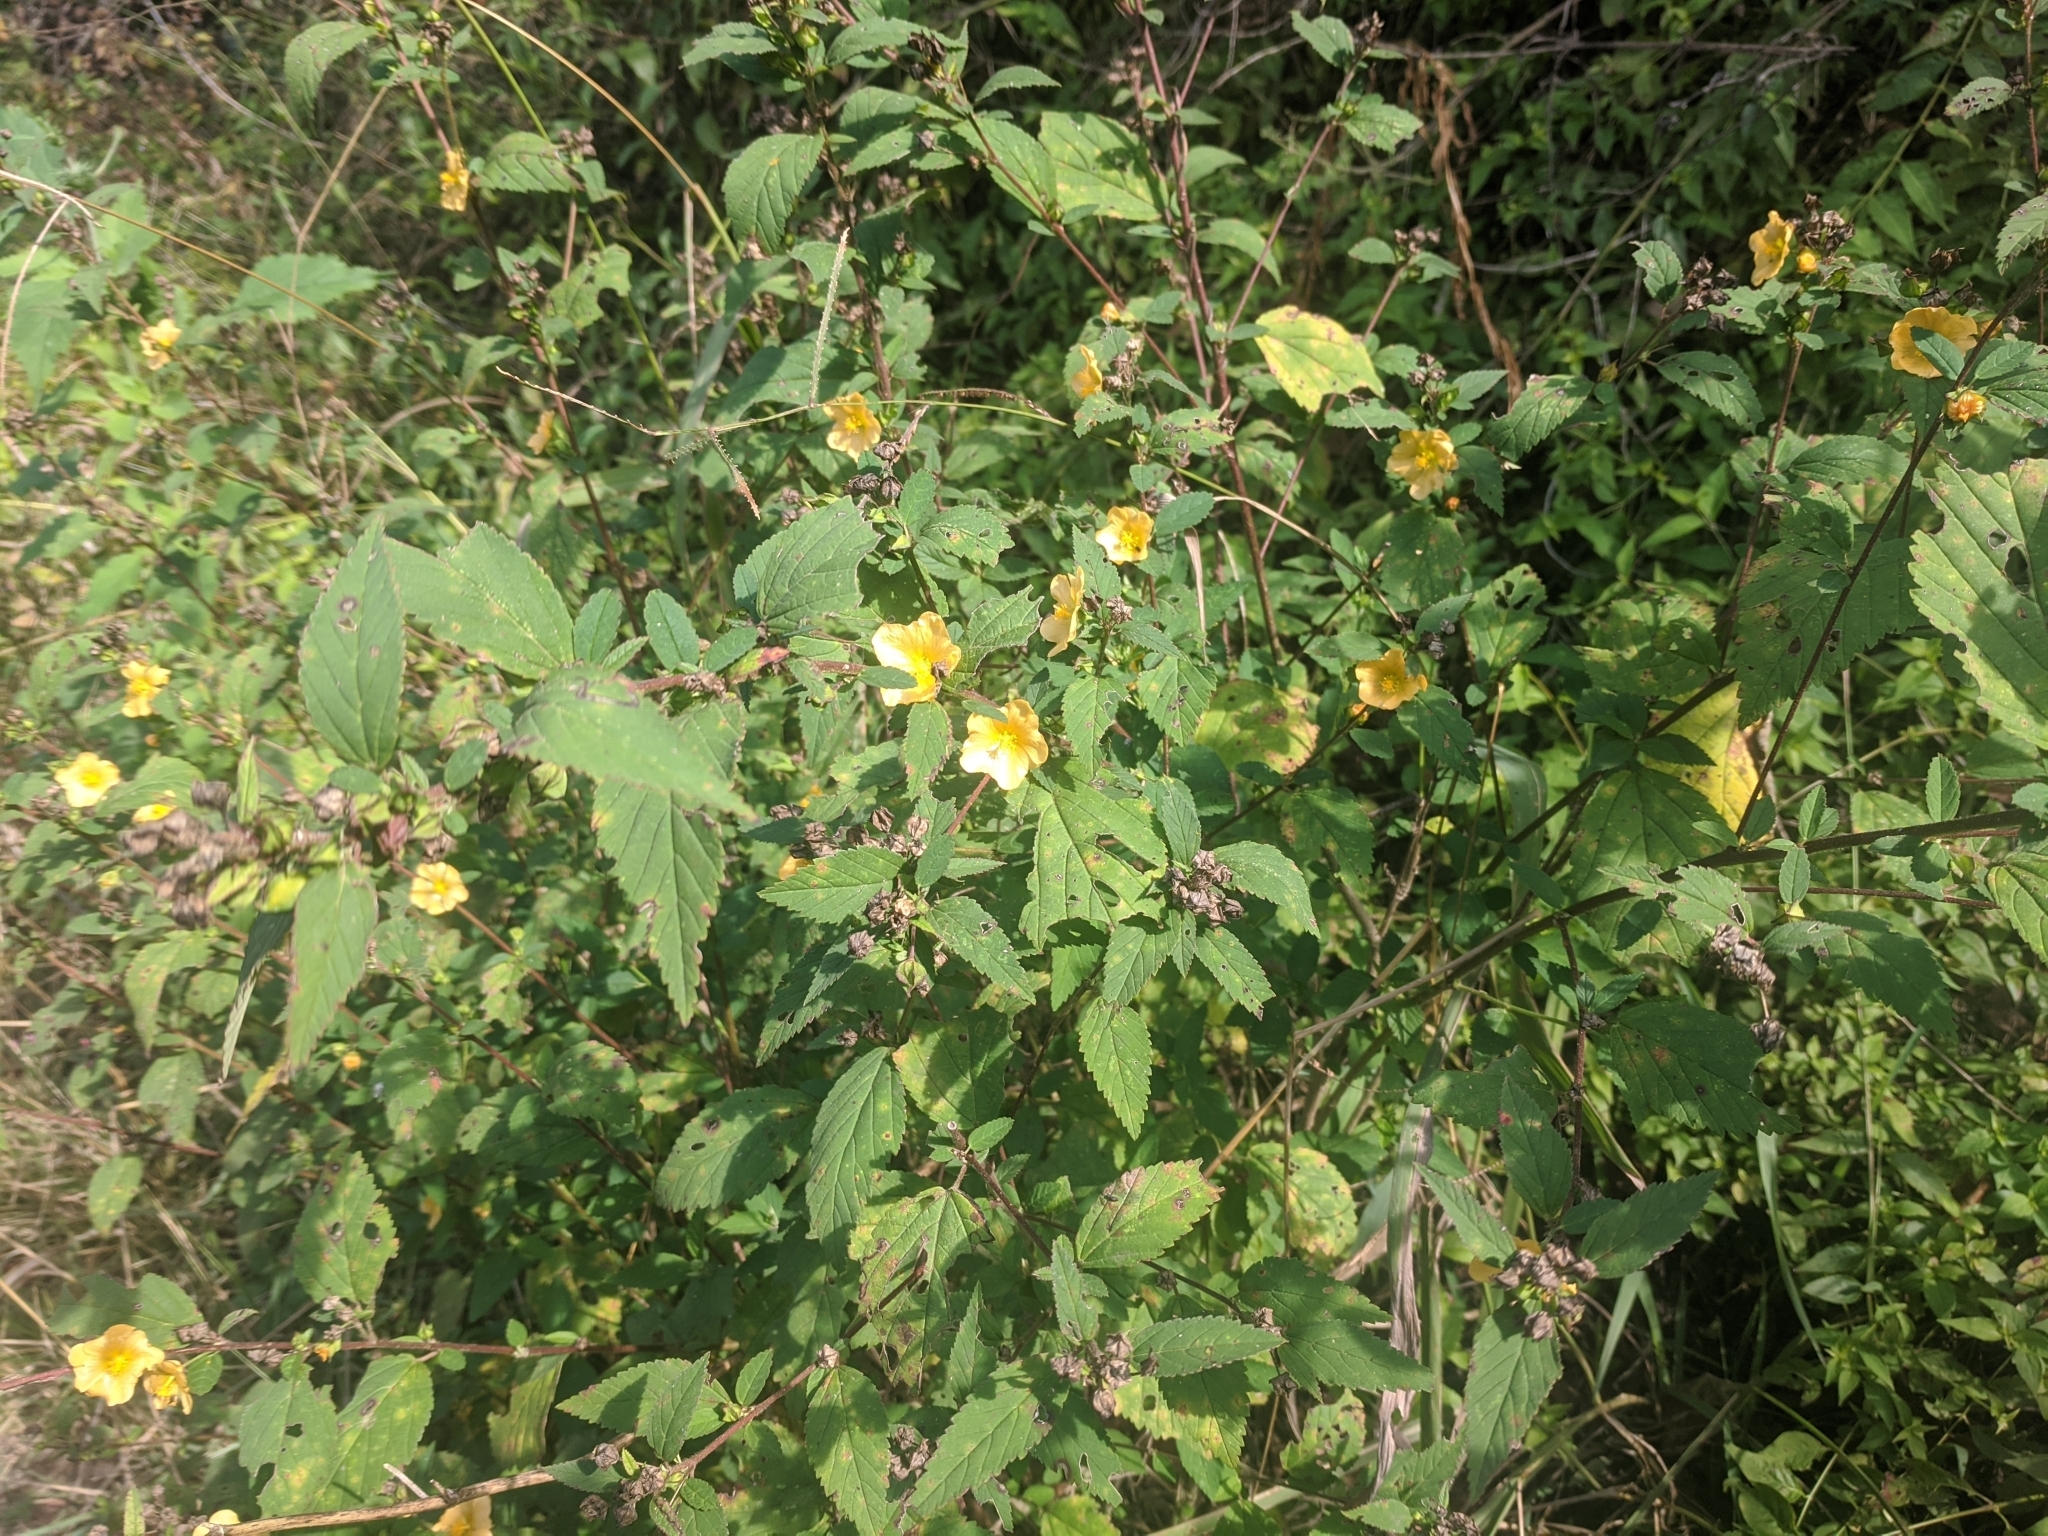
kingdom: Plantae
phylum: Tracheophyta
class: Magnoliopsida
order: Malvales
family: Malvaceae
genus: Sida
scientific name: Sida haenkeana
